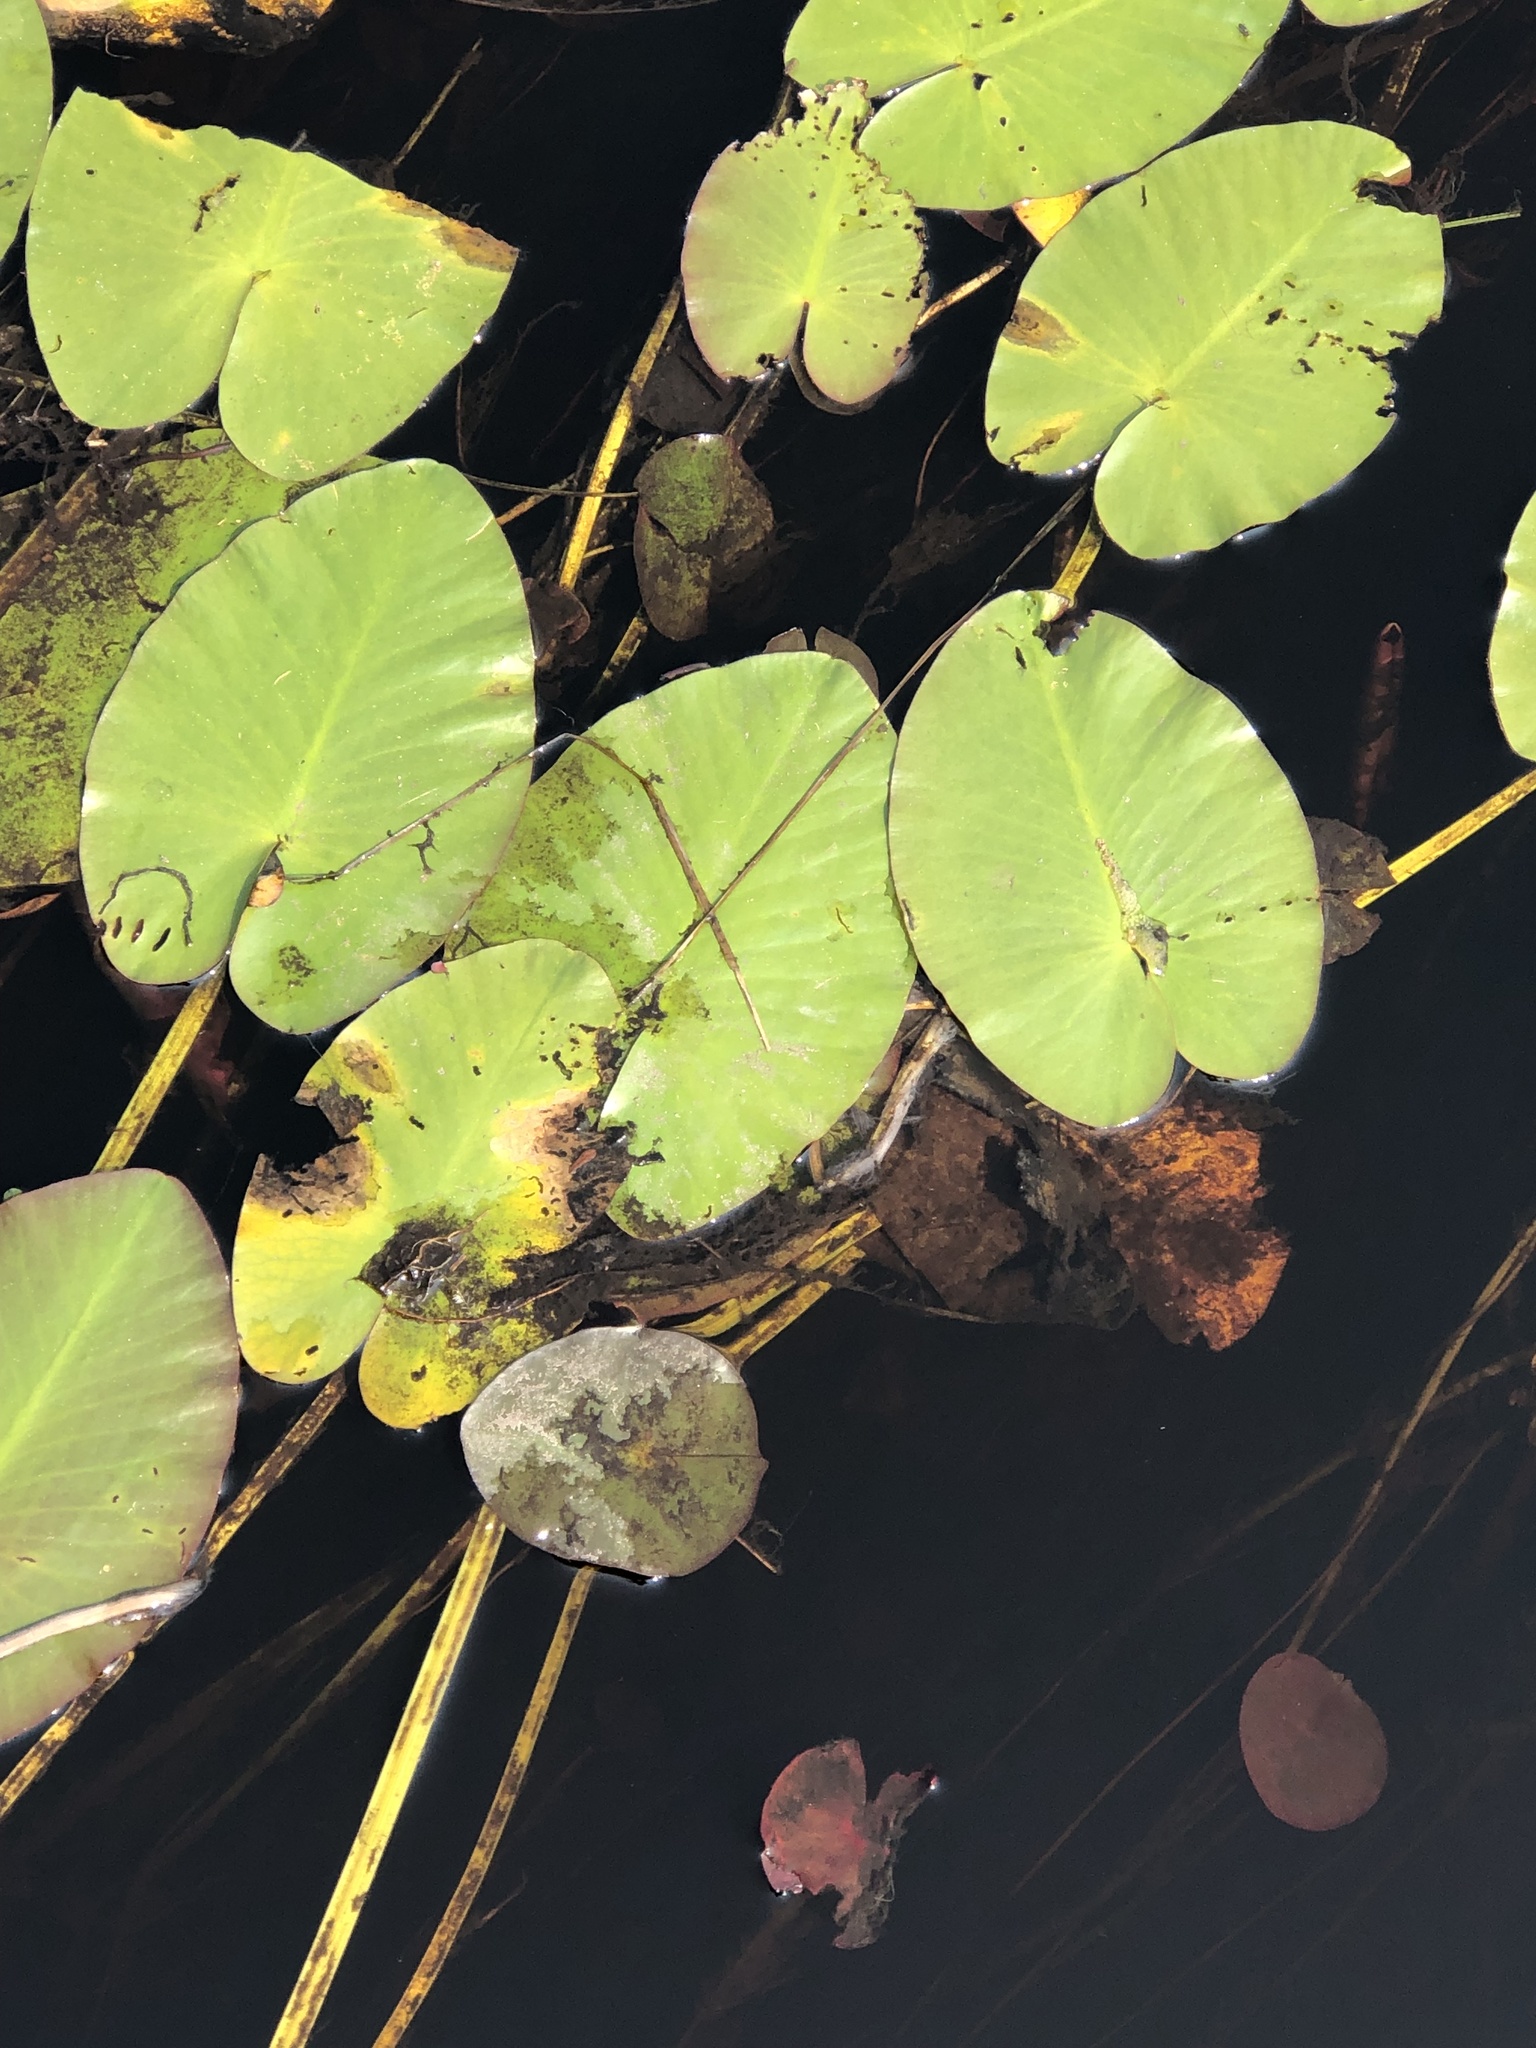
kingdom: Plantae
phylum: Tracheophyta
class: Magnoliopsida
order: Nymphaeales
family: Nymphaeaceae
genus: Nuphar
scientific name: Nuphar variegata
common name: Beaver-root
